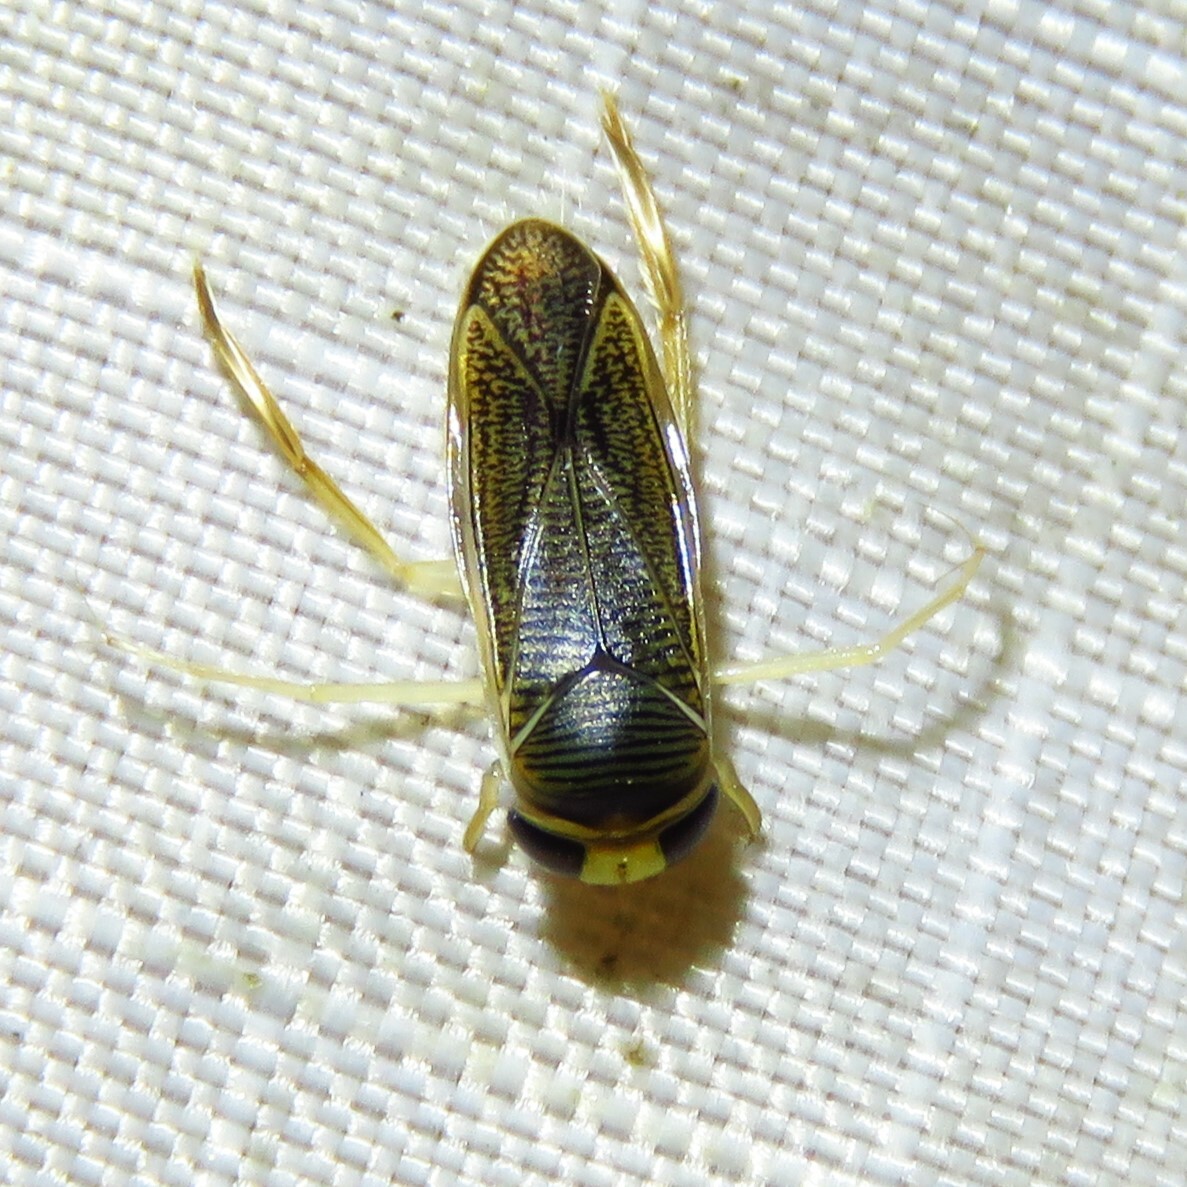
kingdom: Animalia
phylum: Arthropoda
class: Insecta
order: Hemiptera
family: Corixidae
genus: Sigara
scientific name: Sigara
